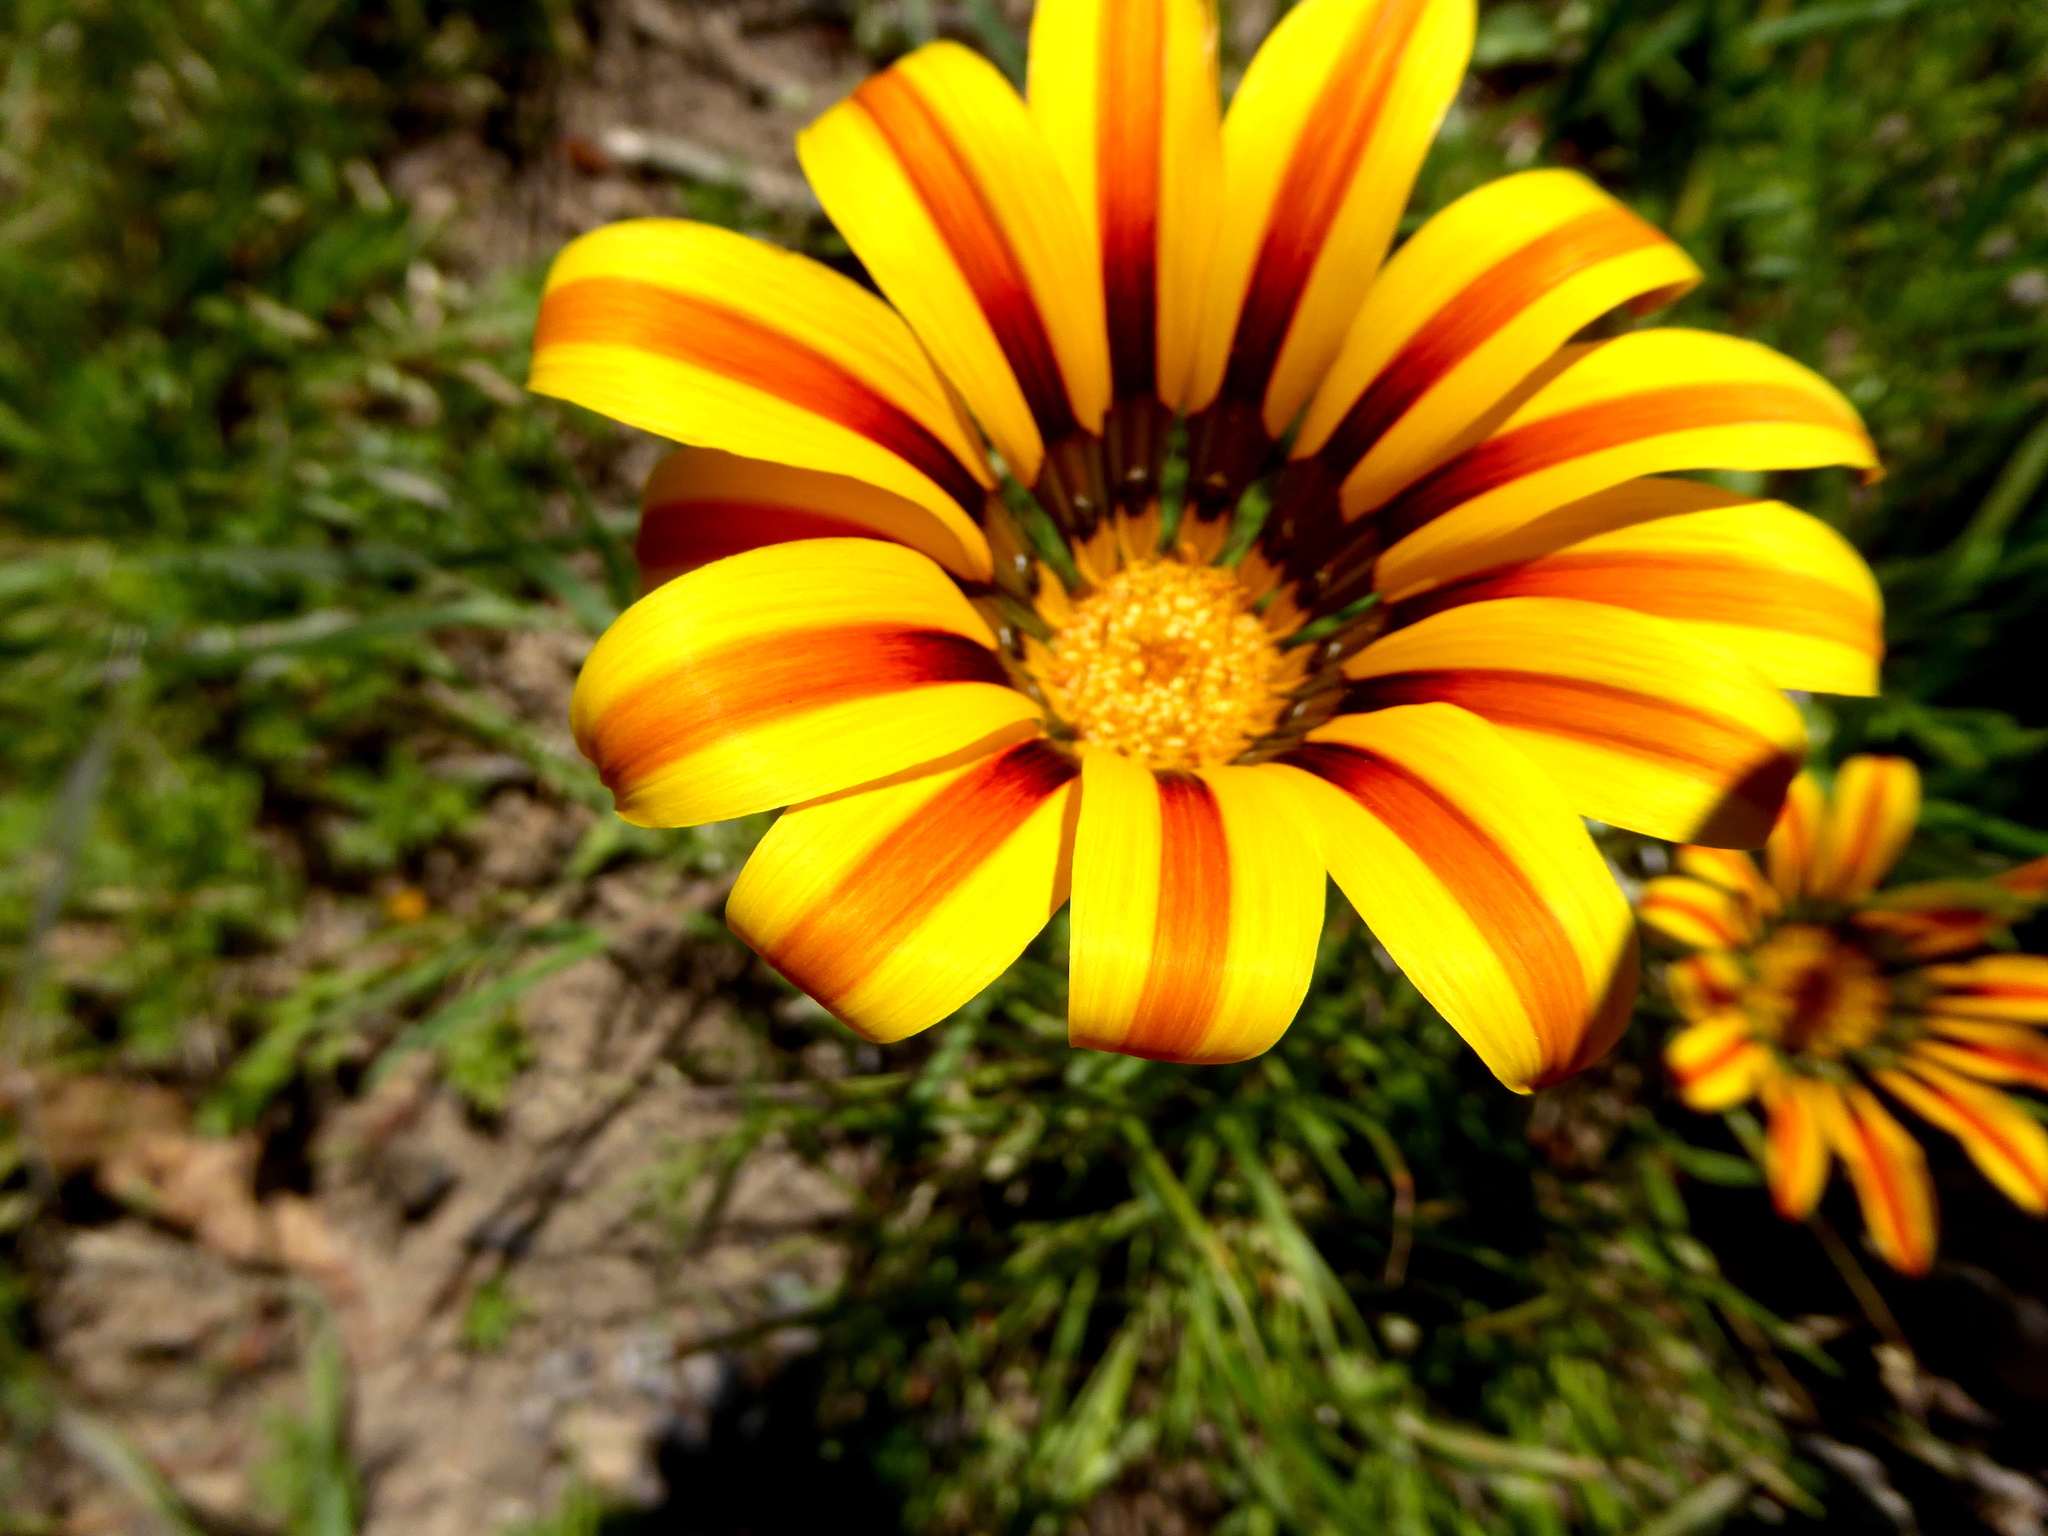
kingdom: Plantae
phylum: Tracheophyta
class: Magnoliopsida
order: Asterales
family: Asteraceae
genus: Gazania
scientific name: Gazania linearis
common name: Treasureflower
